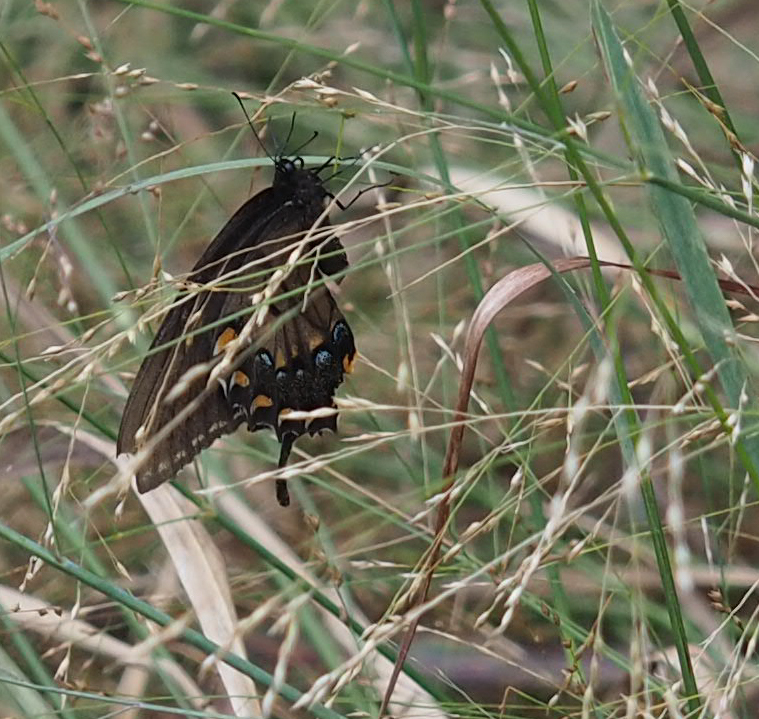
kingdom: Animalia
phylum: Arthropoda
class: Insecta
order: Lepidoptera
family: Papilionidae
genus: Papilio
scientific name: Papilio glaucus
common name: Tiger swallowtail
